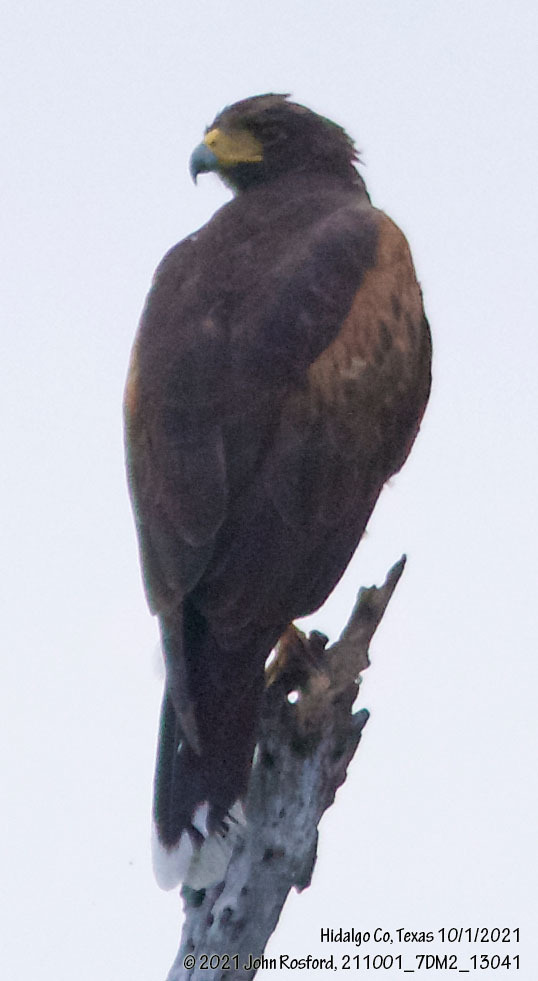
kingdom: Animalia
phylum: Chordata
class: Aves
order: Accipitriformes
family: Accipitridae
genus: Parabuteo
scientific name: Parabuteo unicinctus
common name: Harris's hawk
